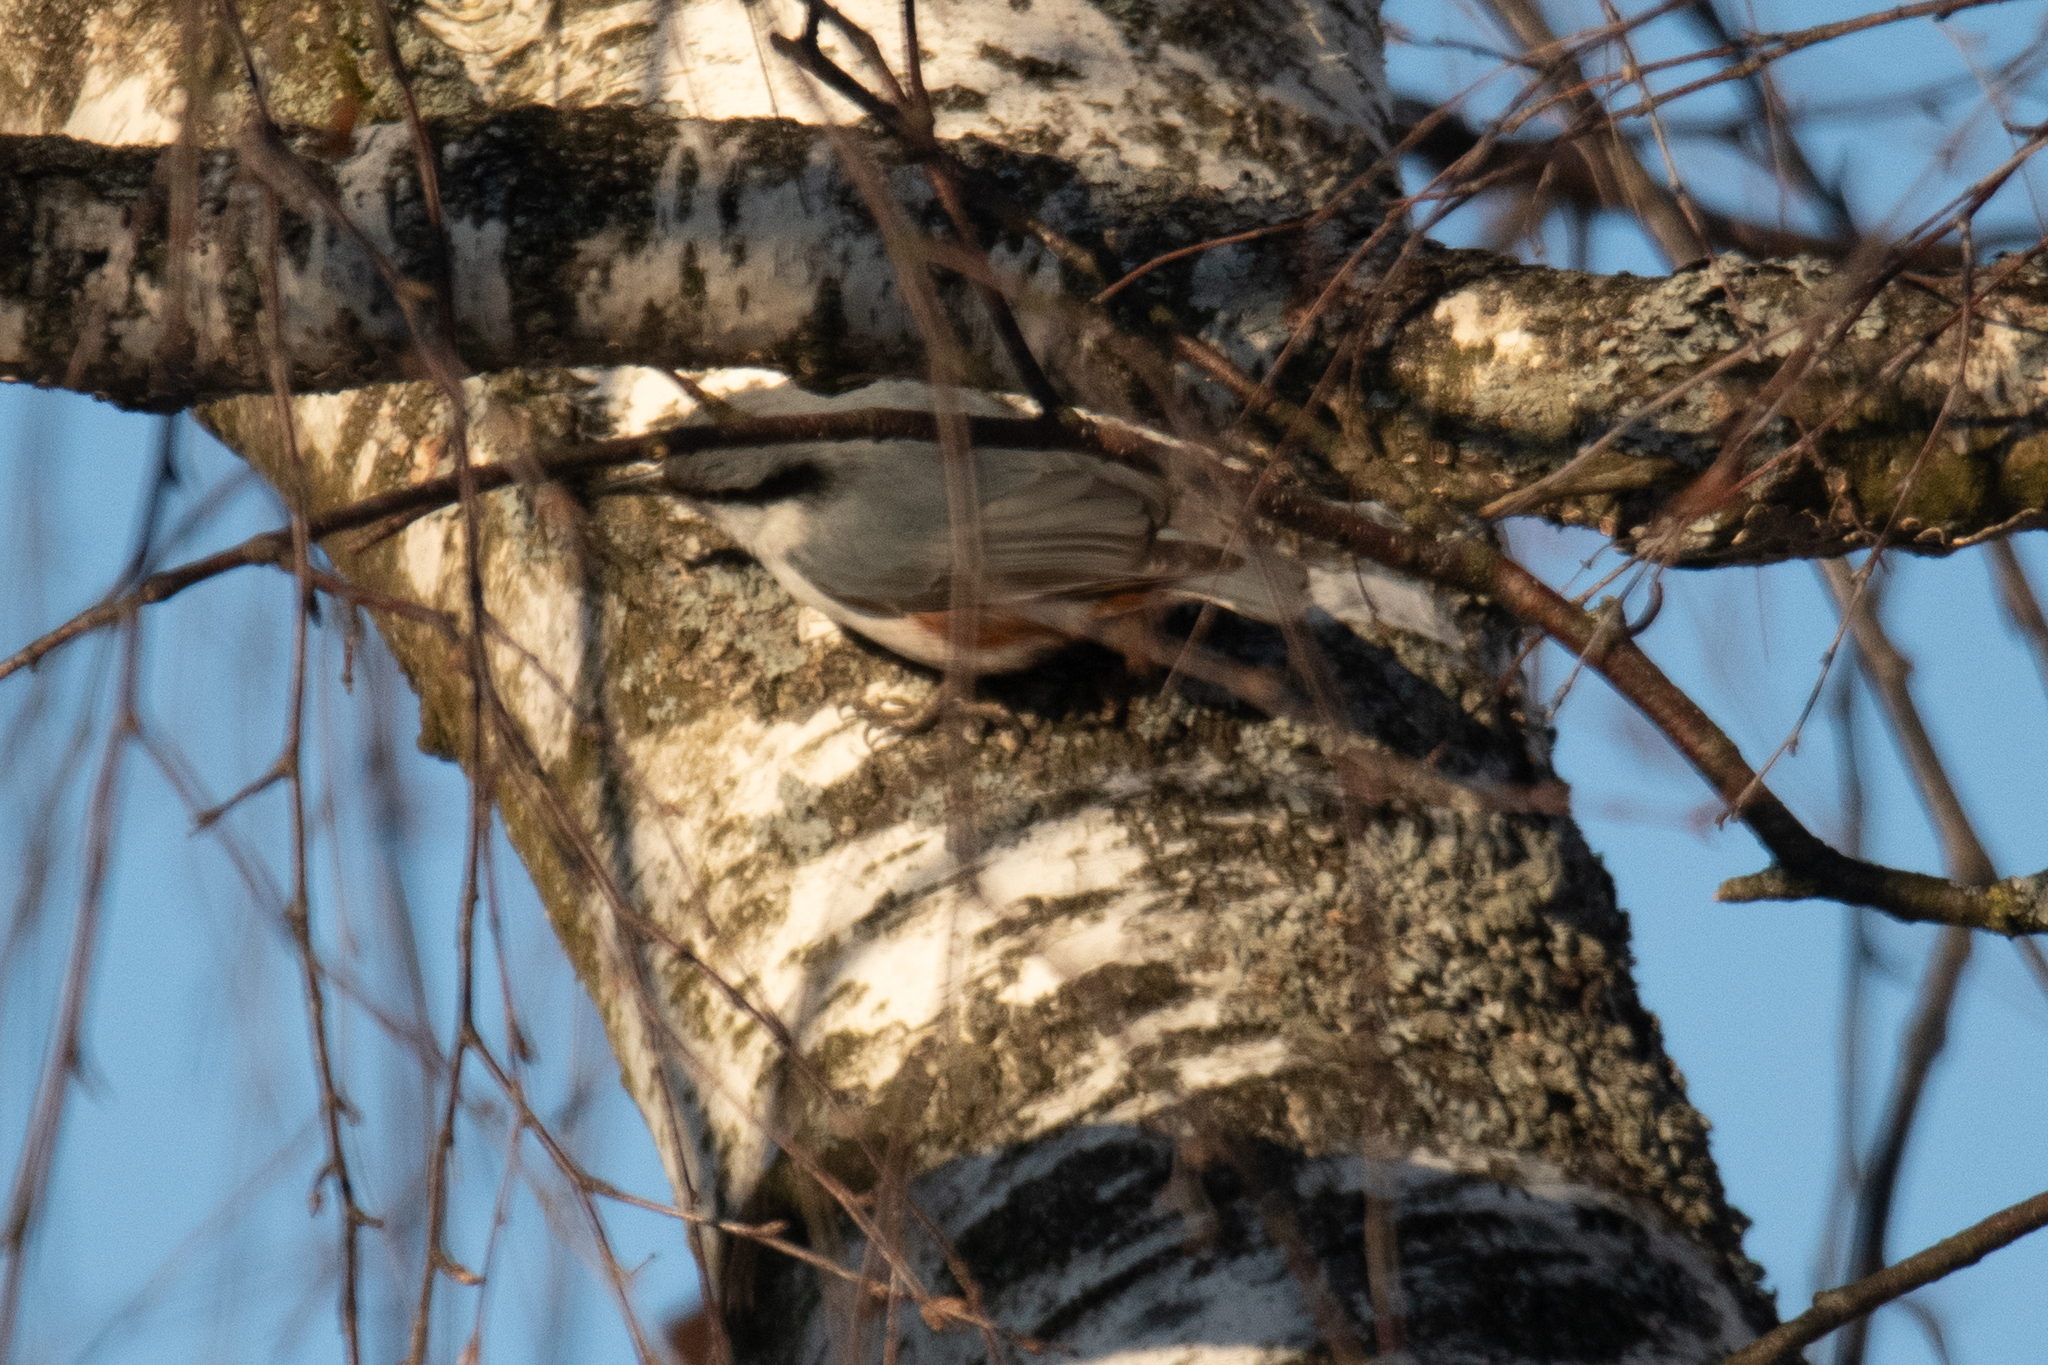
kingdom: Animalia
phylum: Chordata
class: Aves
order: Passeriformes
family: Sittidae
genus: Sitta
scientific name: Sitta europaea
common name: Eurasian nuthatch
